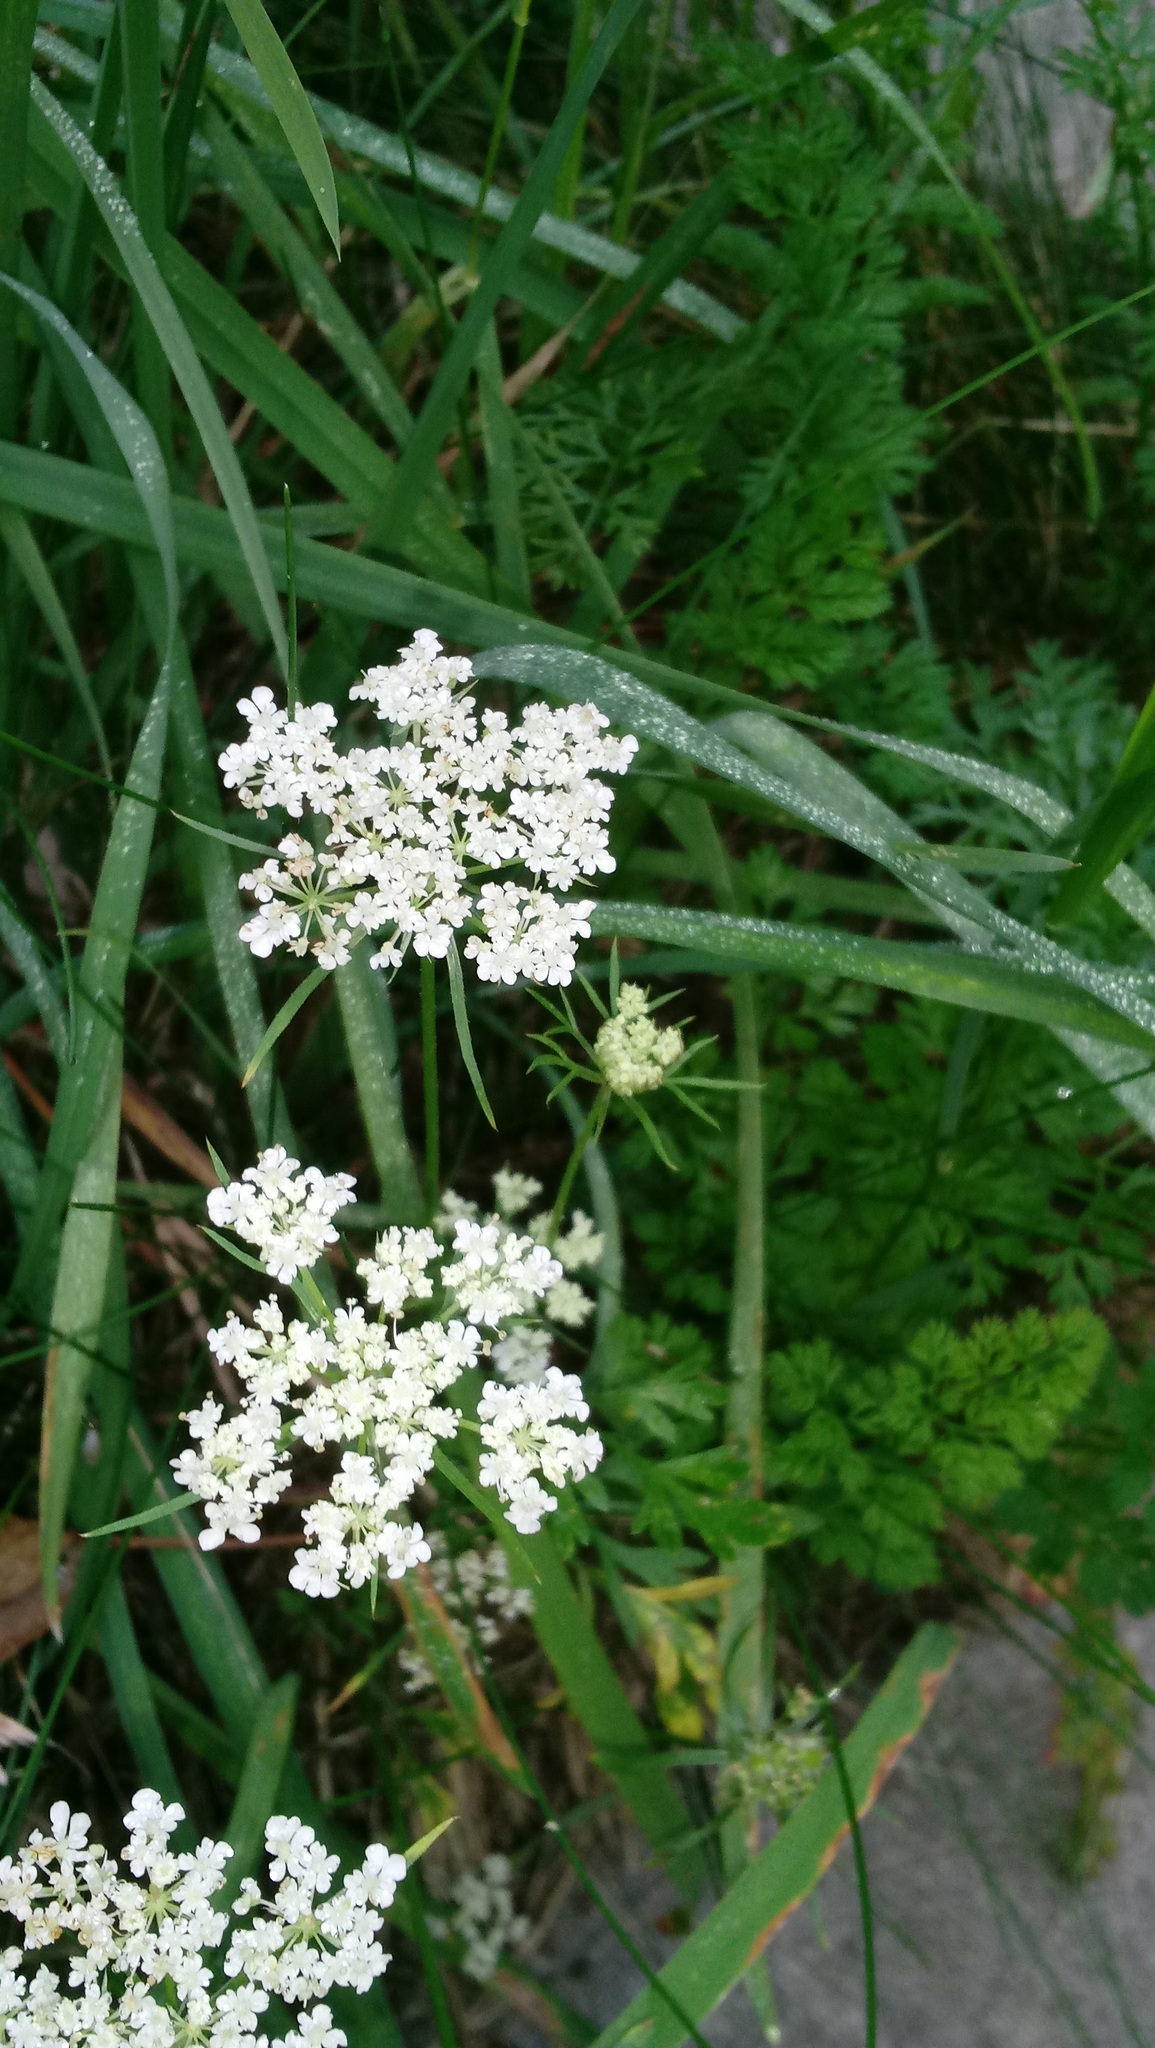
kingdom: Plantae
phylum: Tracheophyta
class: Magnoliopsida
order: Apiales
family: Apiaceae
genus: Daucus
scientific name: Daucus carota
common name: Wild carrot
